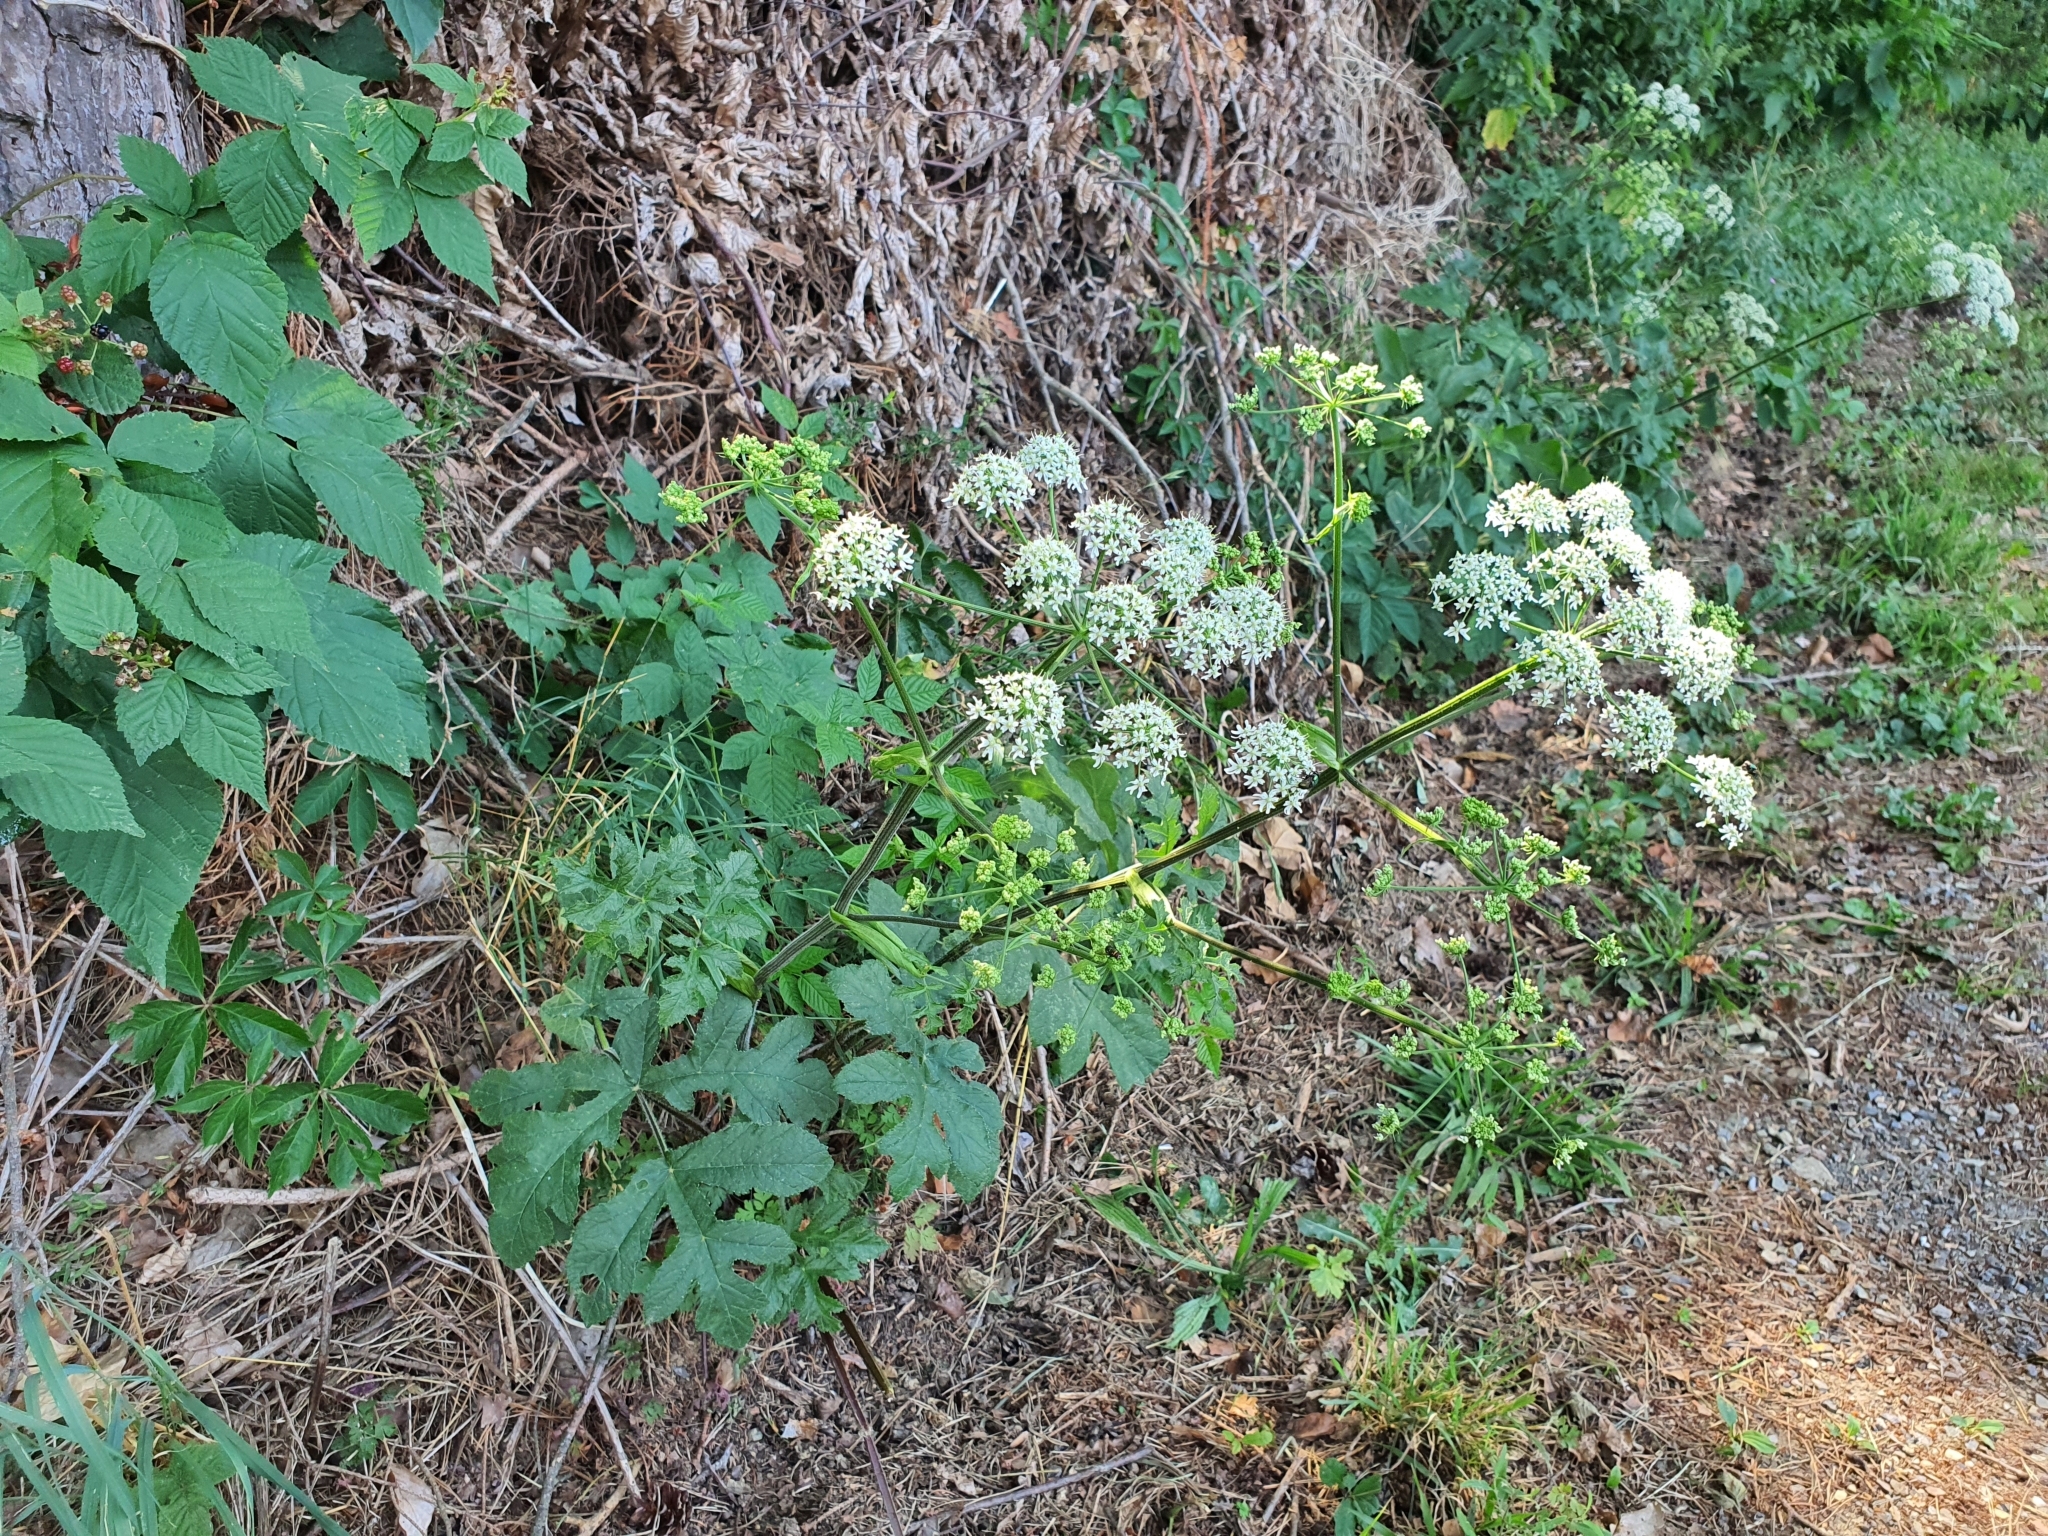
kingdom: Plantae
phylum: Tracheophyta
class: Magnoliopsida
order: Apiales
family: Apiaceae
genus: Heracleum
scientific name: Heracleum sphondylium
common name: Hogweed
